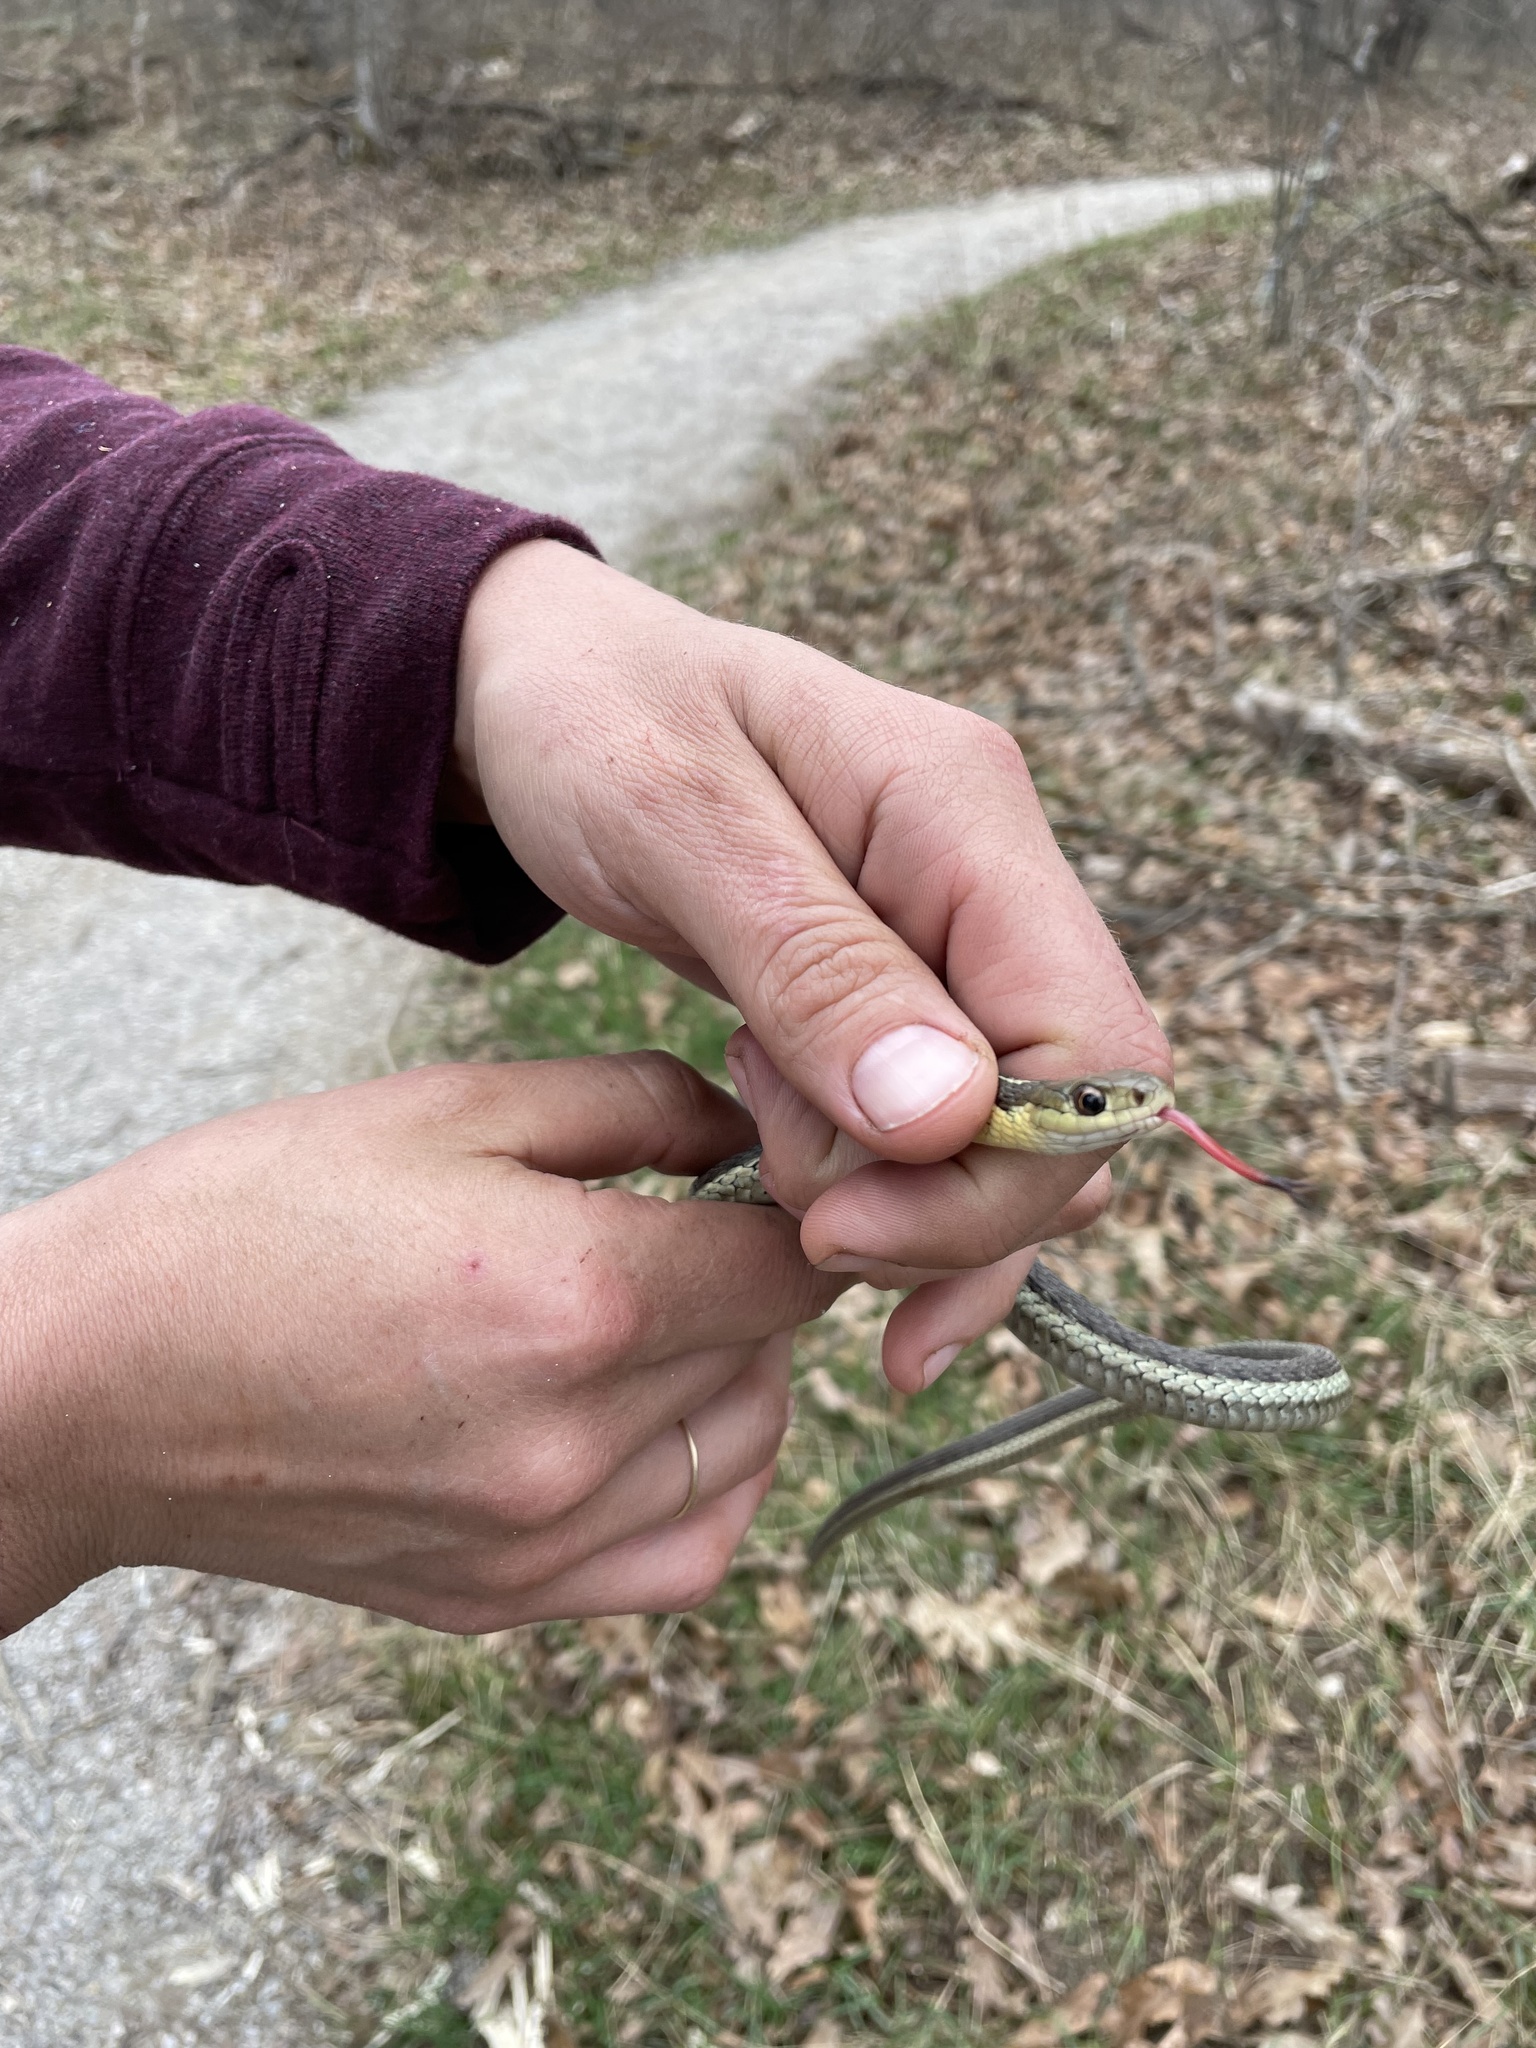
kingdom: Animalia
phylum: Chordata
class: Squamata
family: Colubridae
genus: Thamnophis
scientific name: Thamnophis sirtalis
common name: Common garter snake
